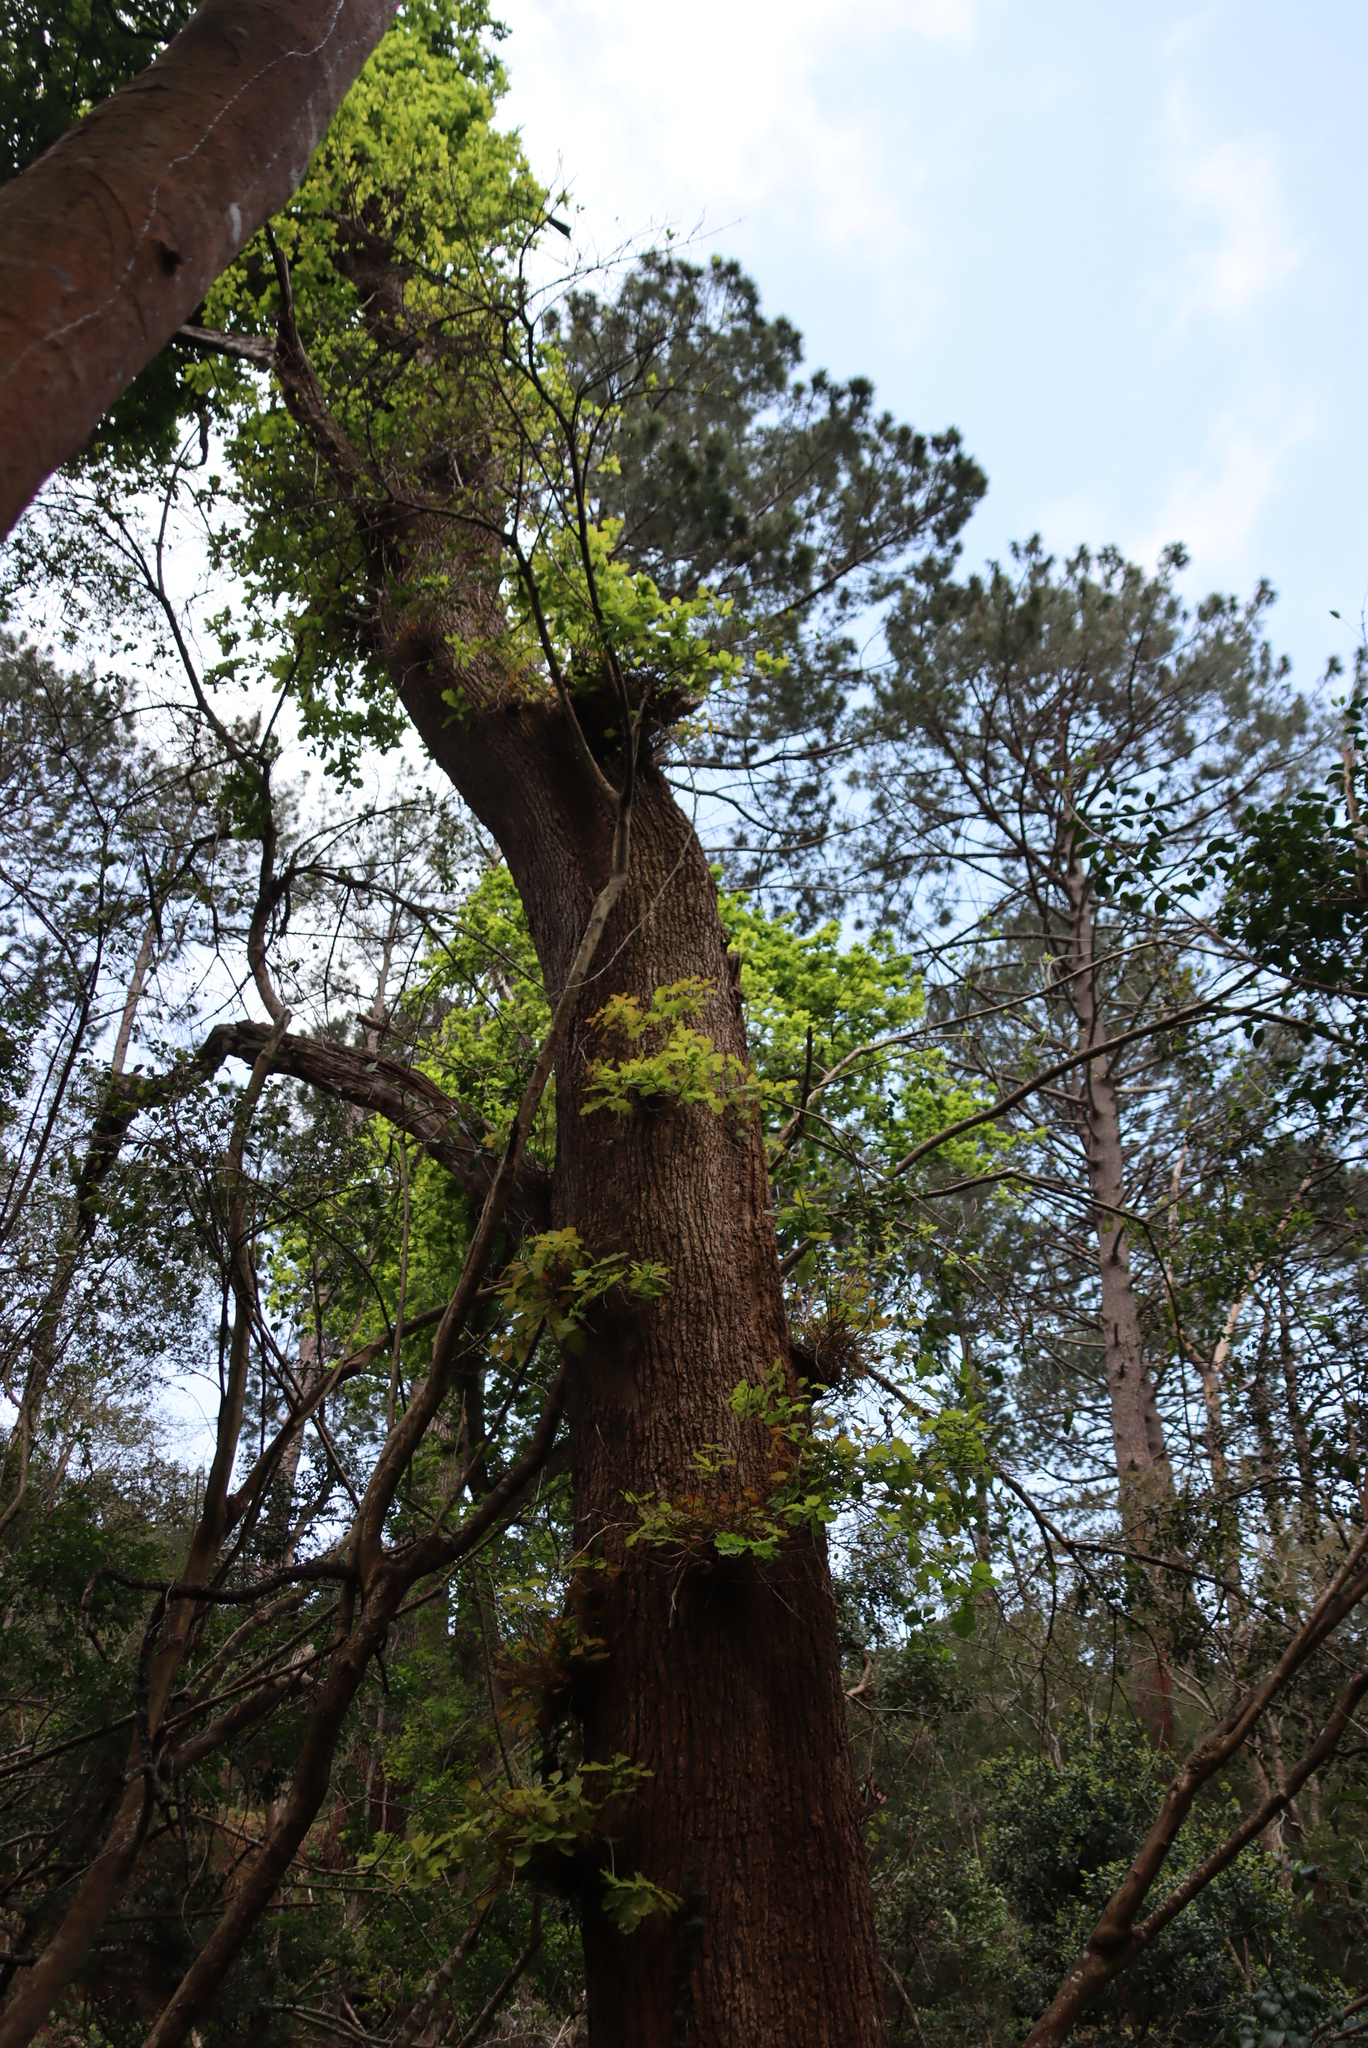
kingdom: Plantae
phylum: Tracheophyta
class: Magnoliopsida
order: Fagales
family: Fagaceae
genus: Quercus
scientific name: Quercus robur
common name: Pedunculate oak
